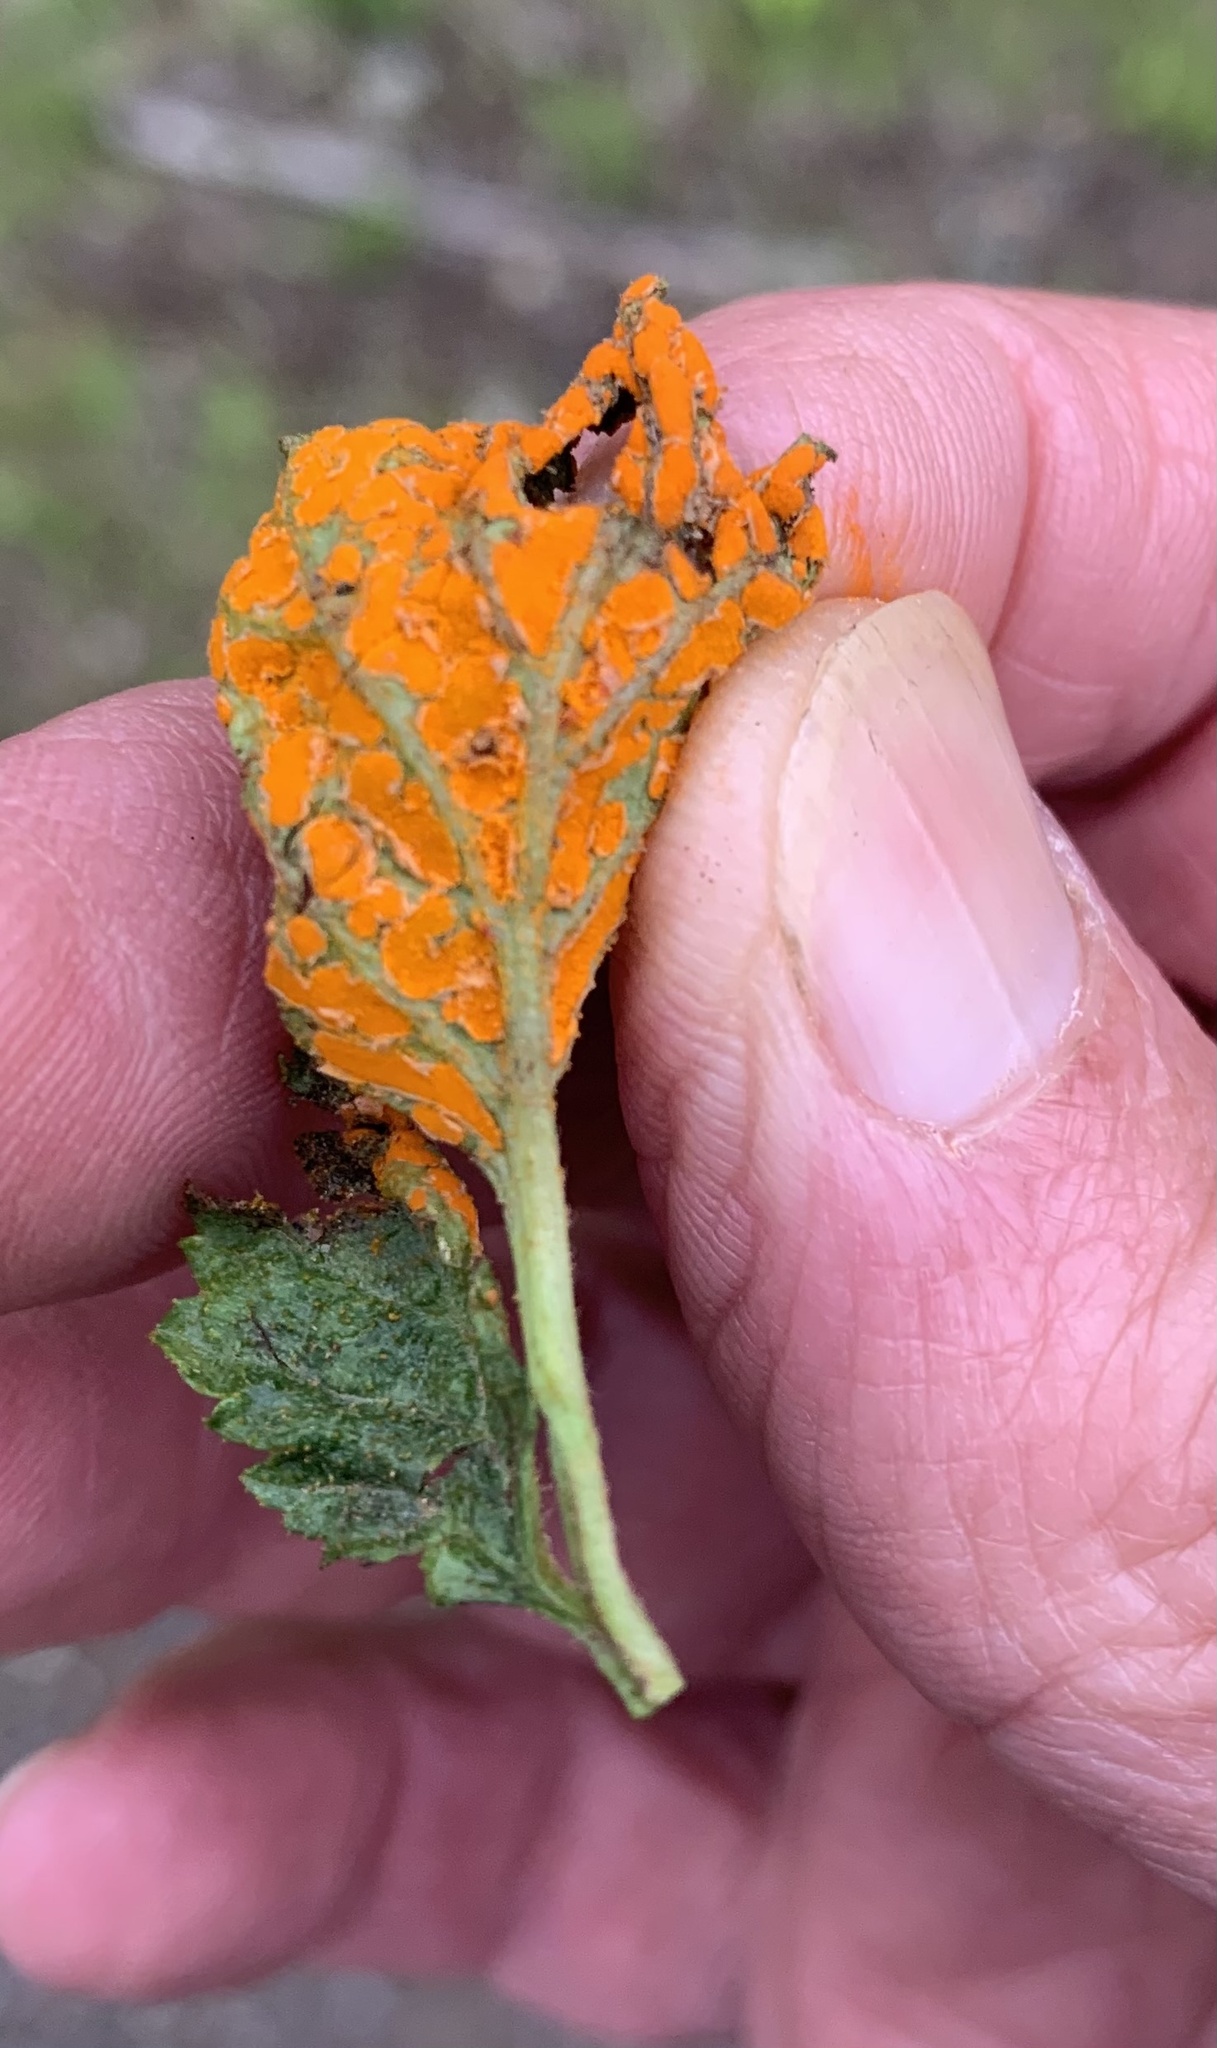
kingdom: Fungi
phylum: Basidiomycota
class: Pucciniomycetes
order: Pucciniales
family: Phragmidiaceae
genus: Arthuriomyces
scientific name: Arthuriomyces peckianus
